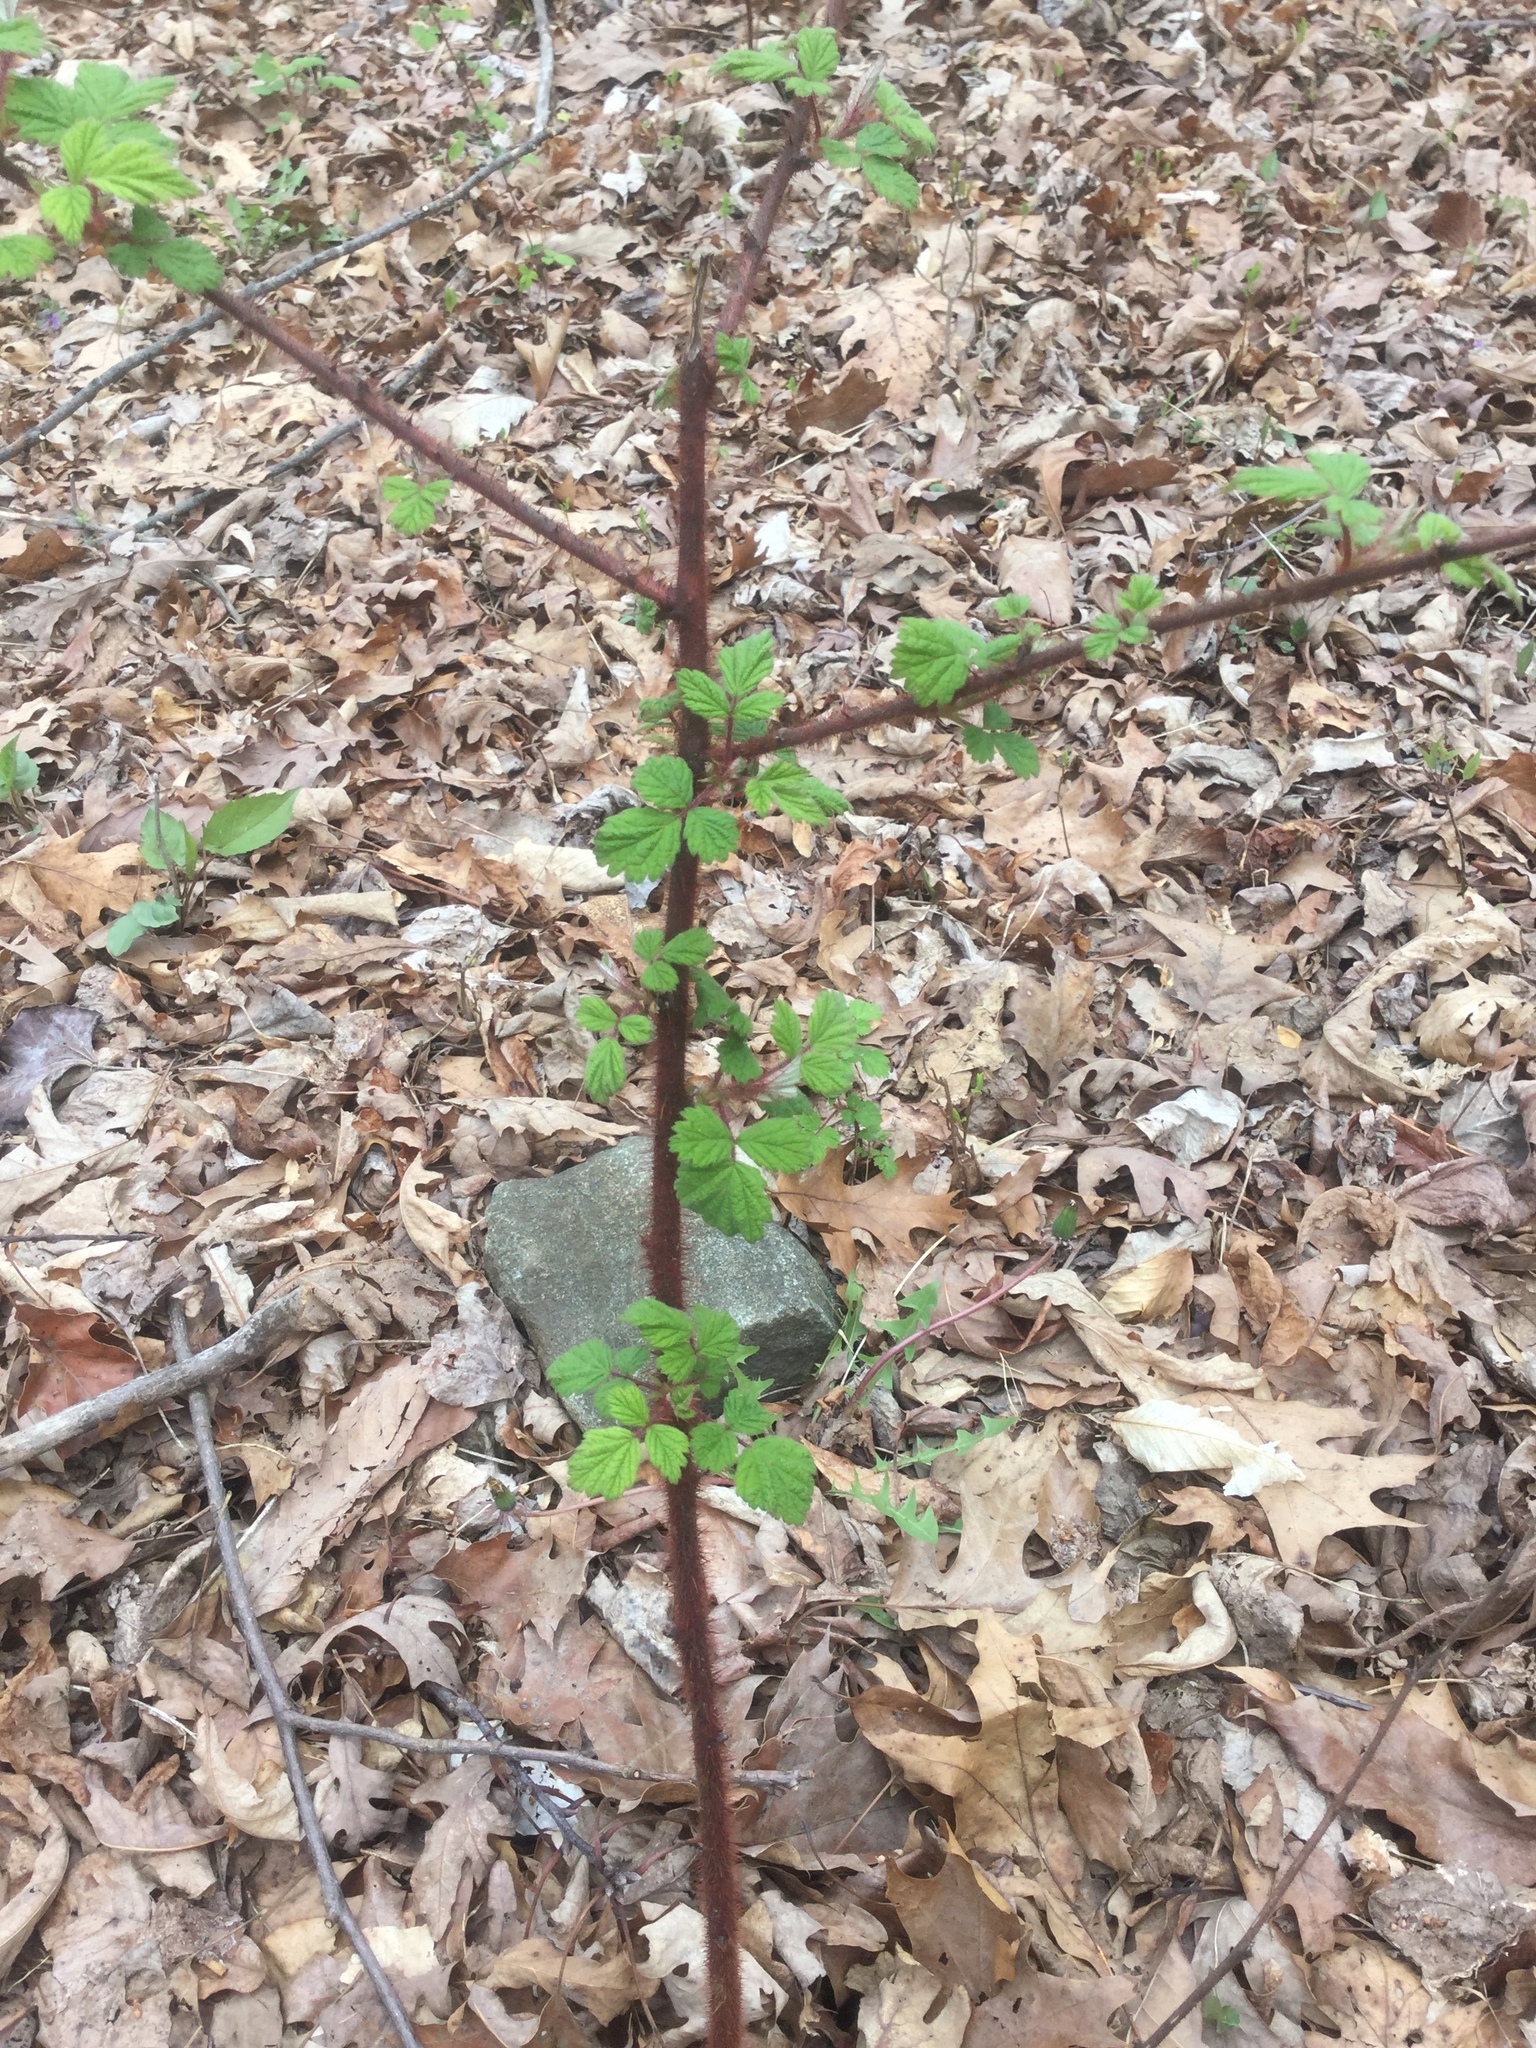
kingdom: Plantae
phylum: Tracheophyta
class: Magnoliopsida
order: Rosales
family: Rosaceae
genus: Rubus
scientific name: Rubus phoenicolasius
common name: Japanese wineberry
